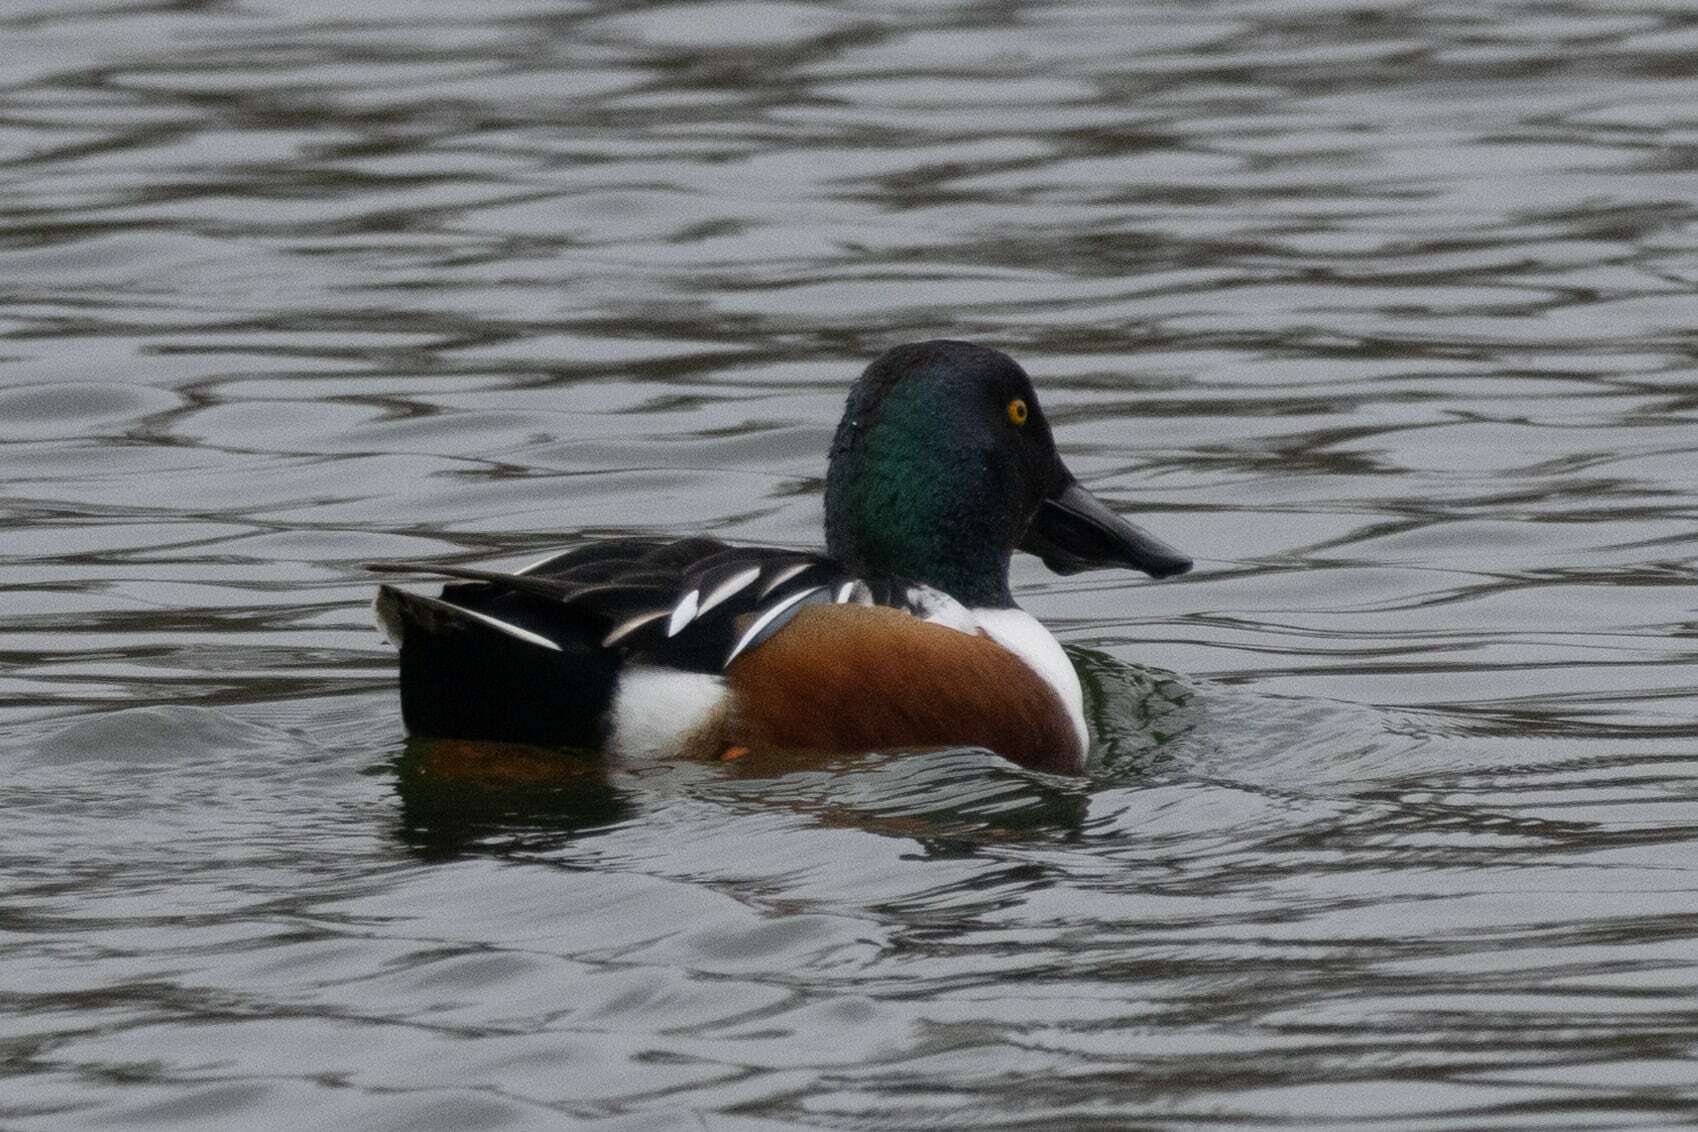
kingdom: Animalia
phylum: Chordata
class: Aves
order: Anseriformes
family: Anatidae
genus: Spatula
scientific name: Spatula clypeata
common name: Northern shoveler
